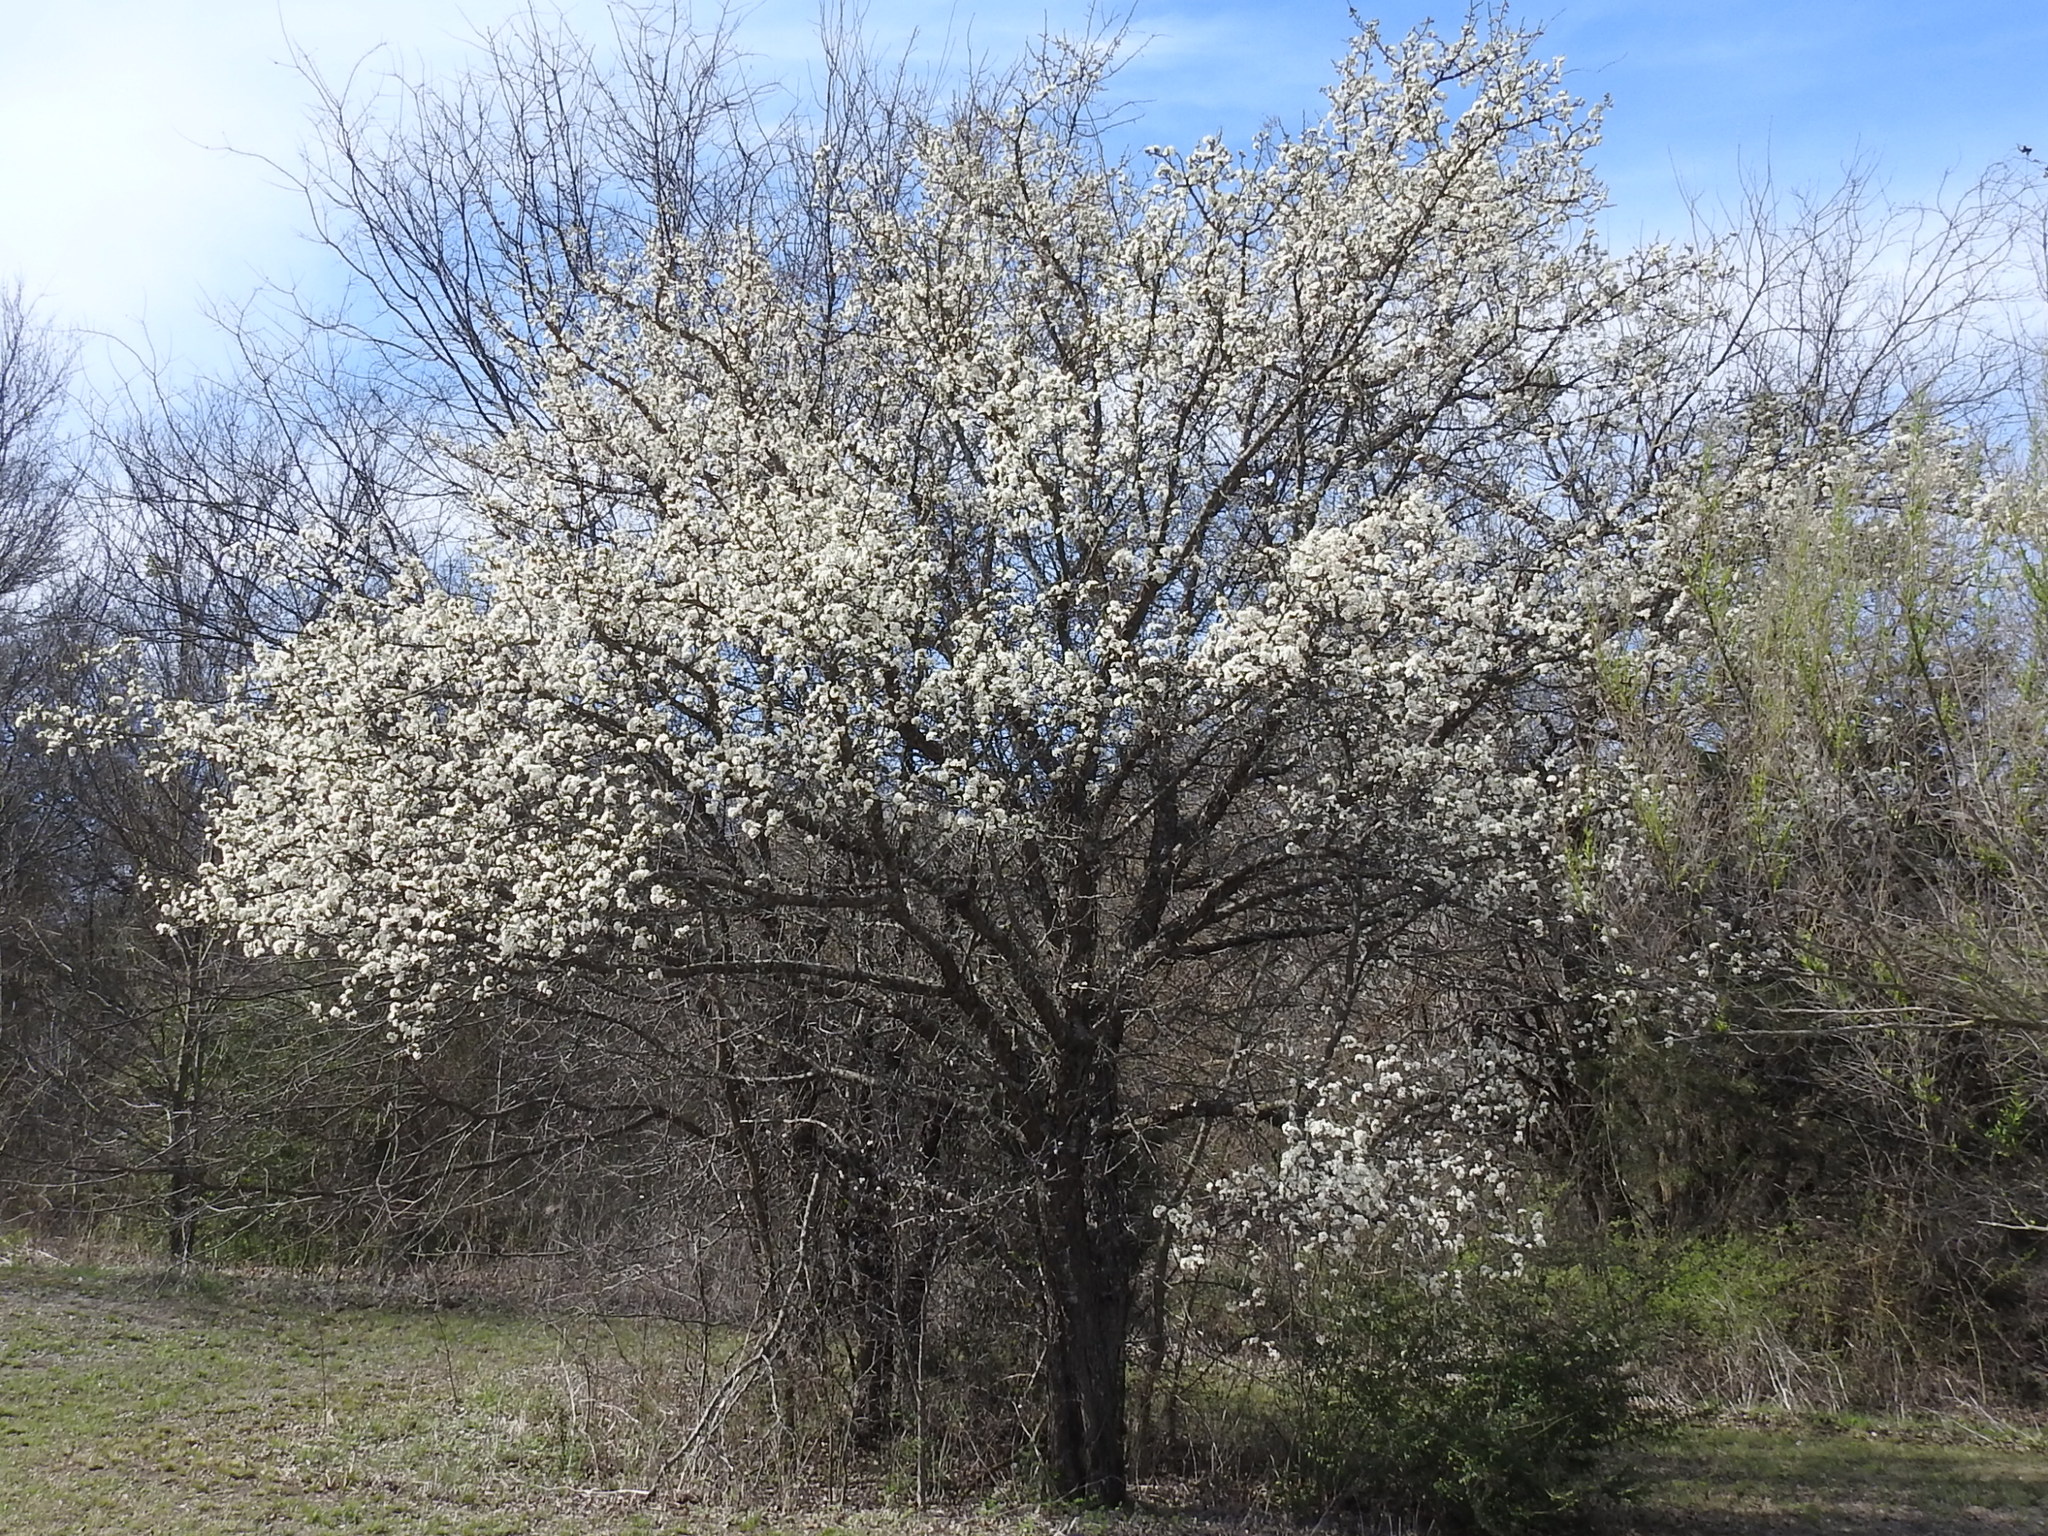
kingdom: Plantae
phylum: Tracheophyta
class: Magnoliopsida
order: Rosales
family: Rosaceae
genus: Prunus
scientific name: Prunus mexicana
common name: Mexican plum
